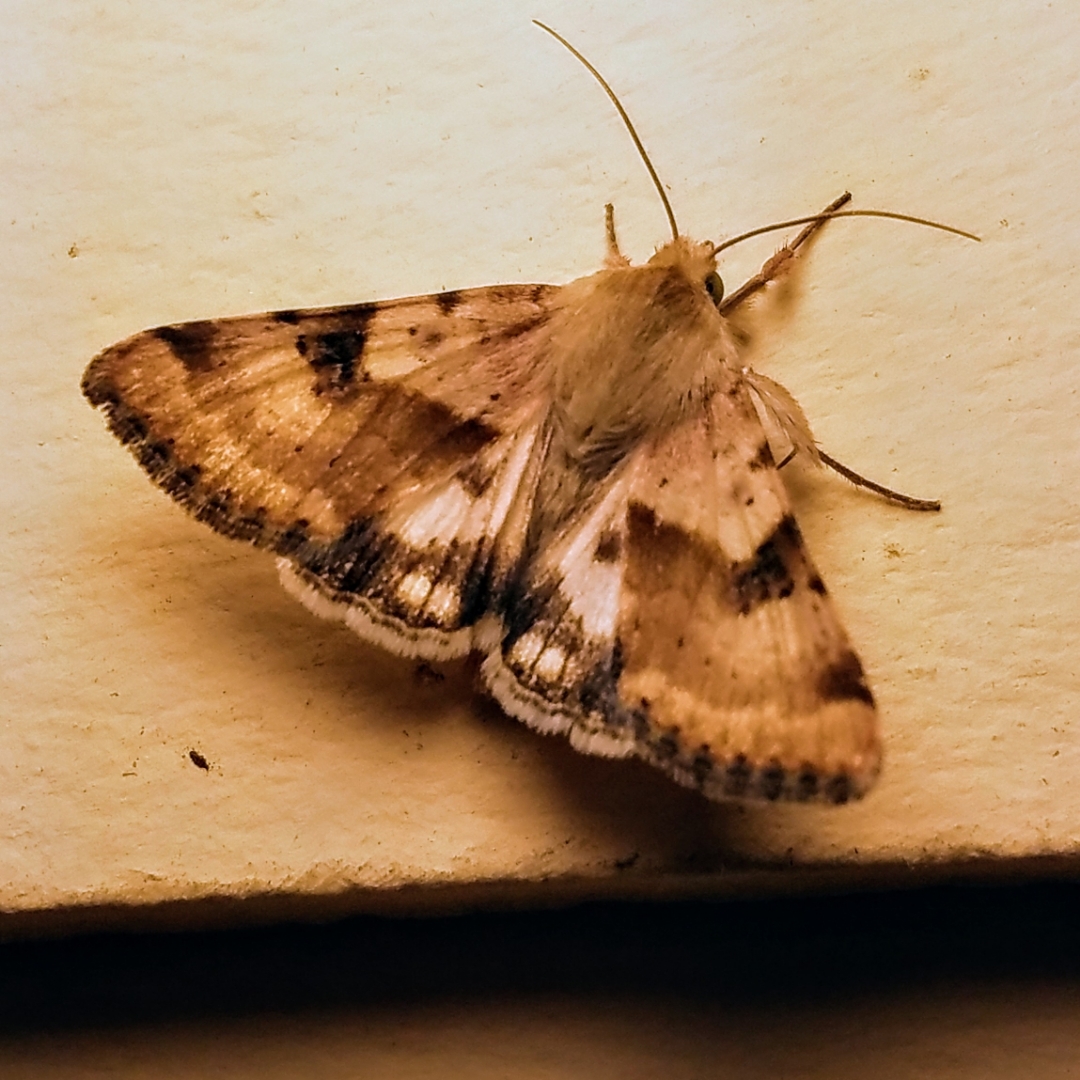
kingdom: Animalia
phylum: Arthropoda
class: Insecta
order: Lepidoptera
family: Noctuidae
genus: Heliothis
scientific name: Heliothis phloxiphaga
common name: Darker spotted straw moth
